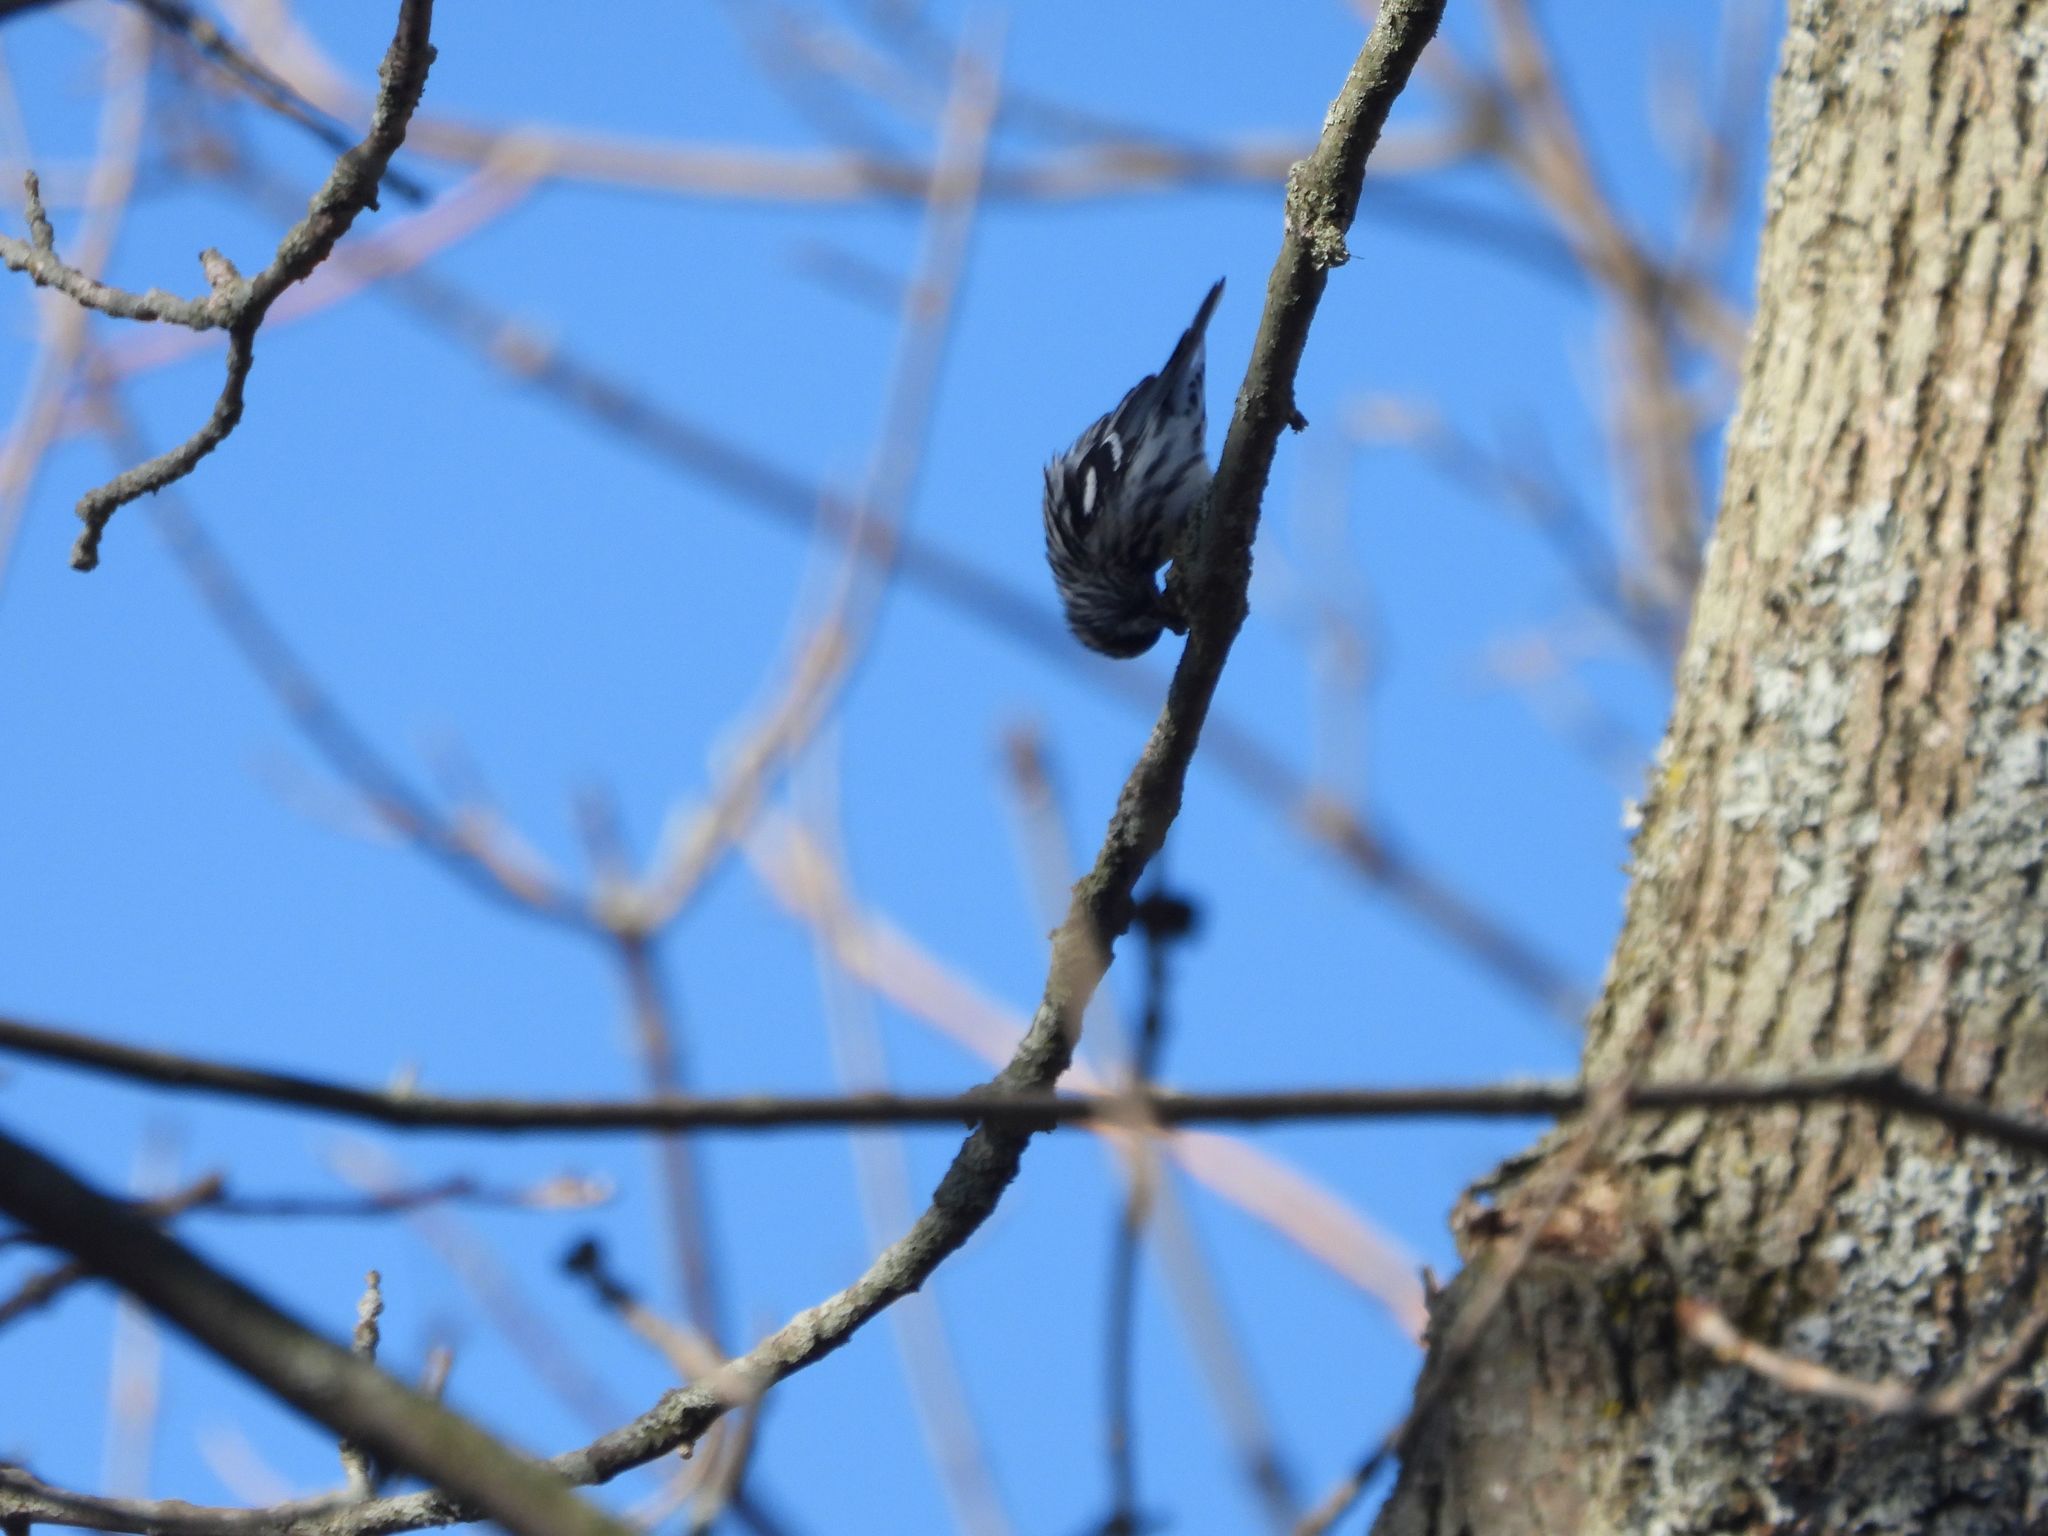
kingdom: Animalia
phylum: Chordata
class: Aves
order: Passeriformes
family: Parulidae
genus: Mniotilta
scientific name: Mniotilta varia
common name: Black-and-white warbler
